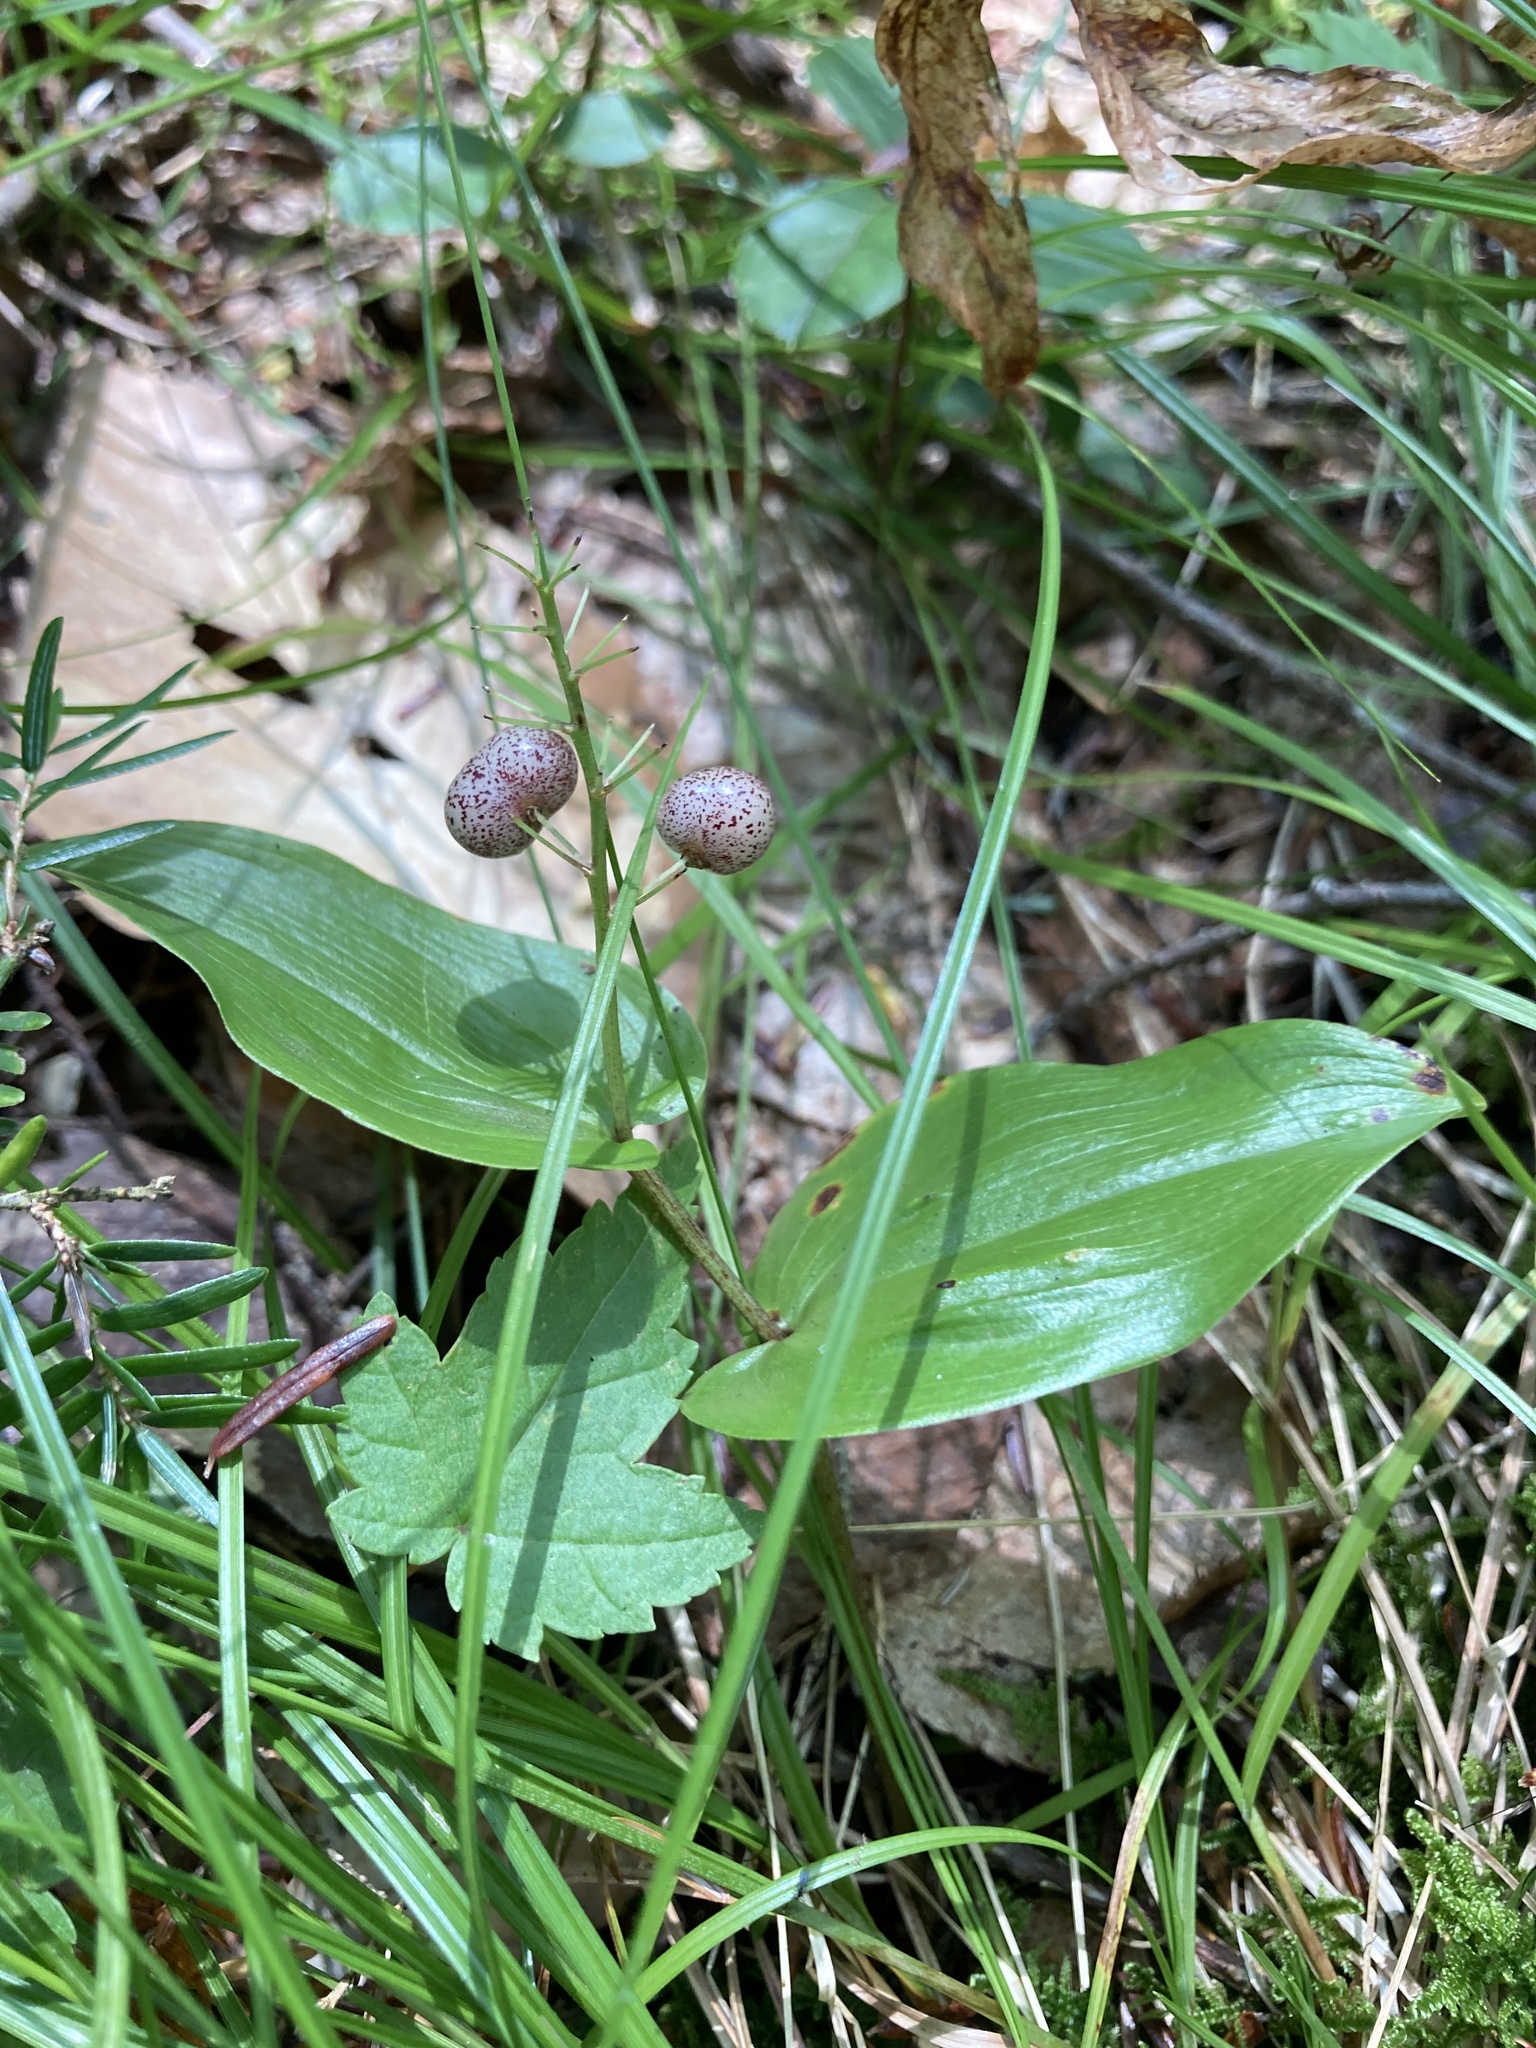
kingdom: Plantae
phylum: Tracheophyta
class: Liliopsida
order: Asparagales
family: Asparagaceae
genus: Maianthemum
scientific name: Maianthemum canadense
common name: False lily-of-the-valley
